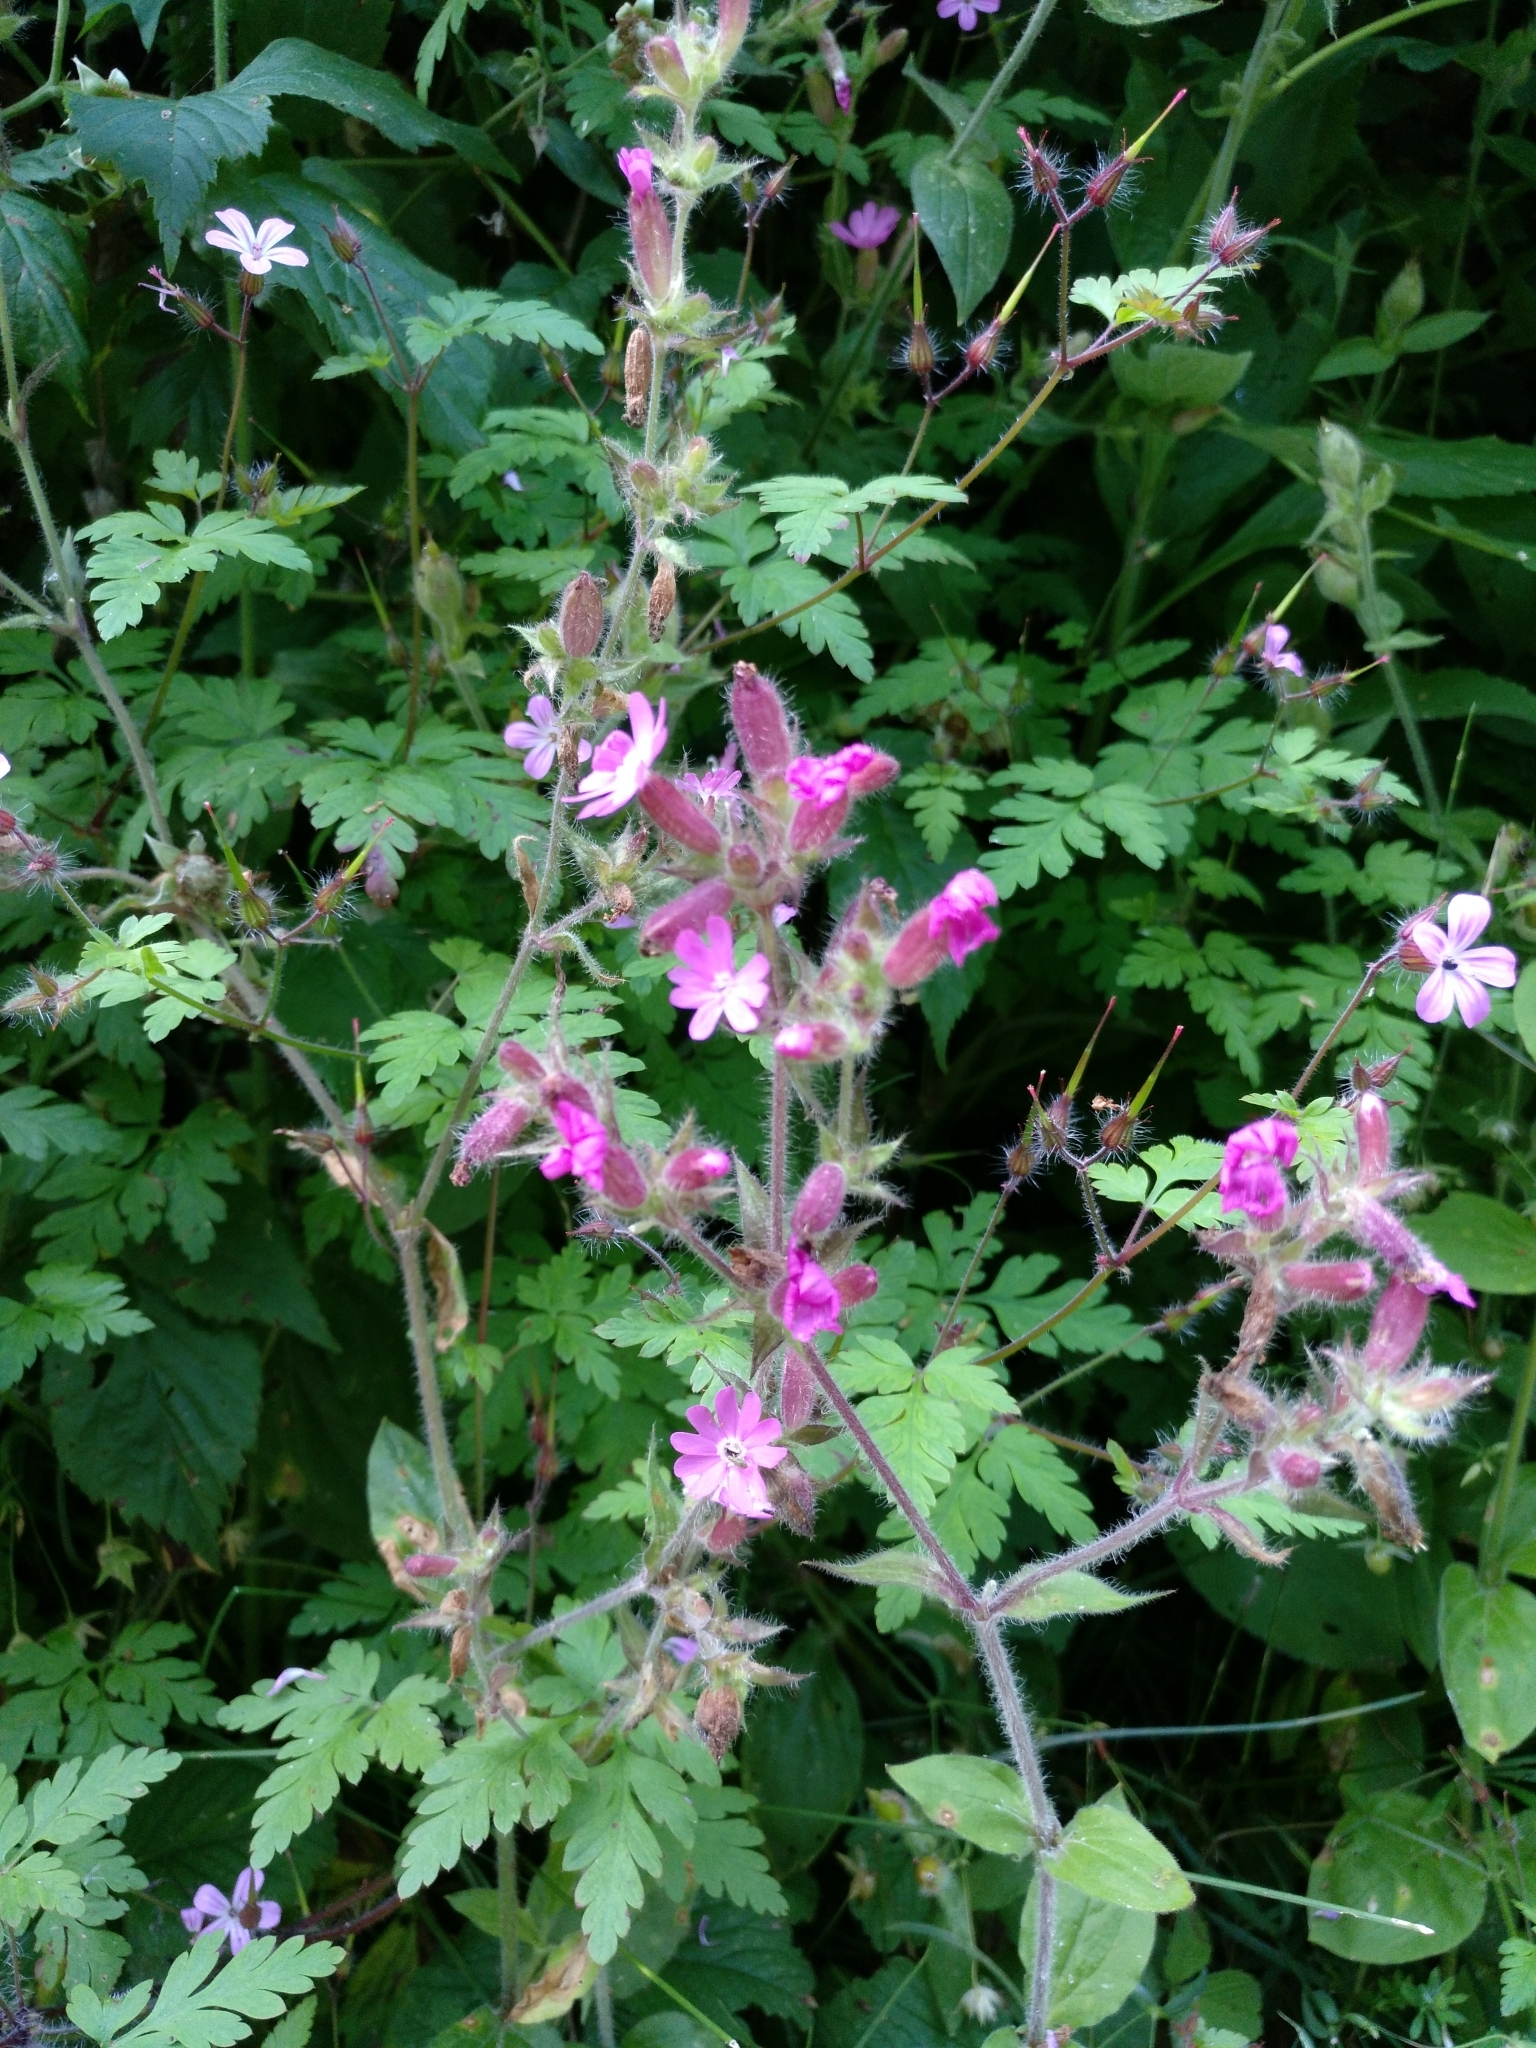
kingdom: Plantae
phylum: Tracheophyta
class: Magnoliopsida
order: Caryophyllales
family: Caryophyllaceae
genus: Silene
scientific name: Silene dioica
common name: Red campion
